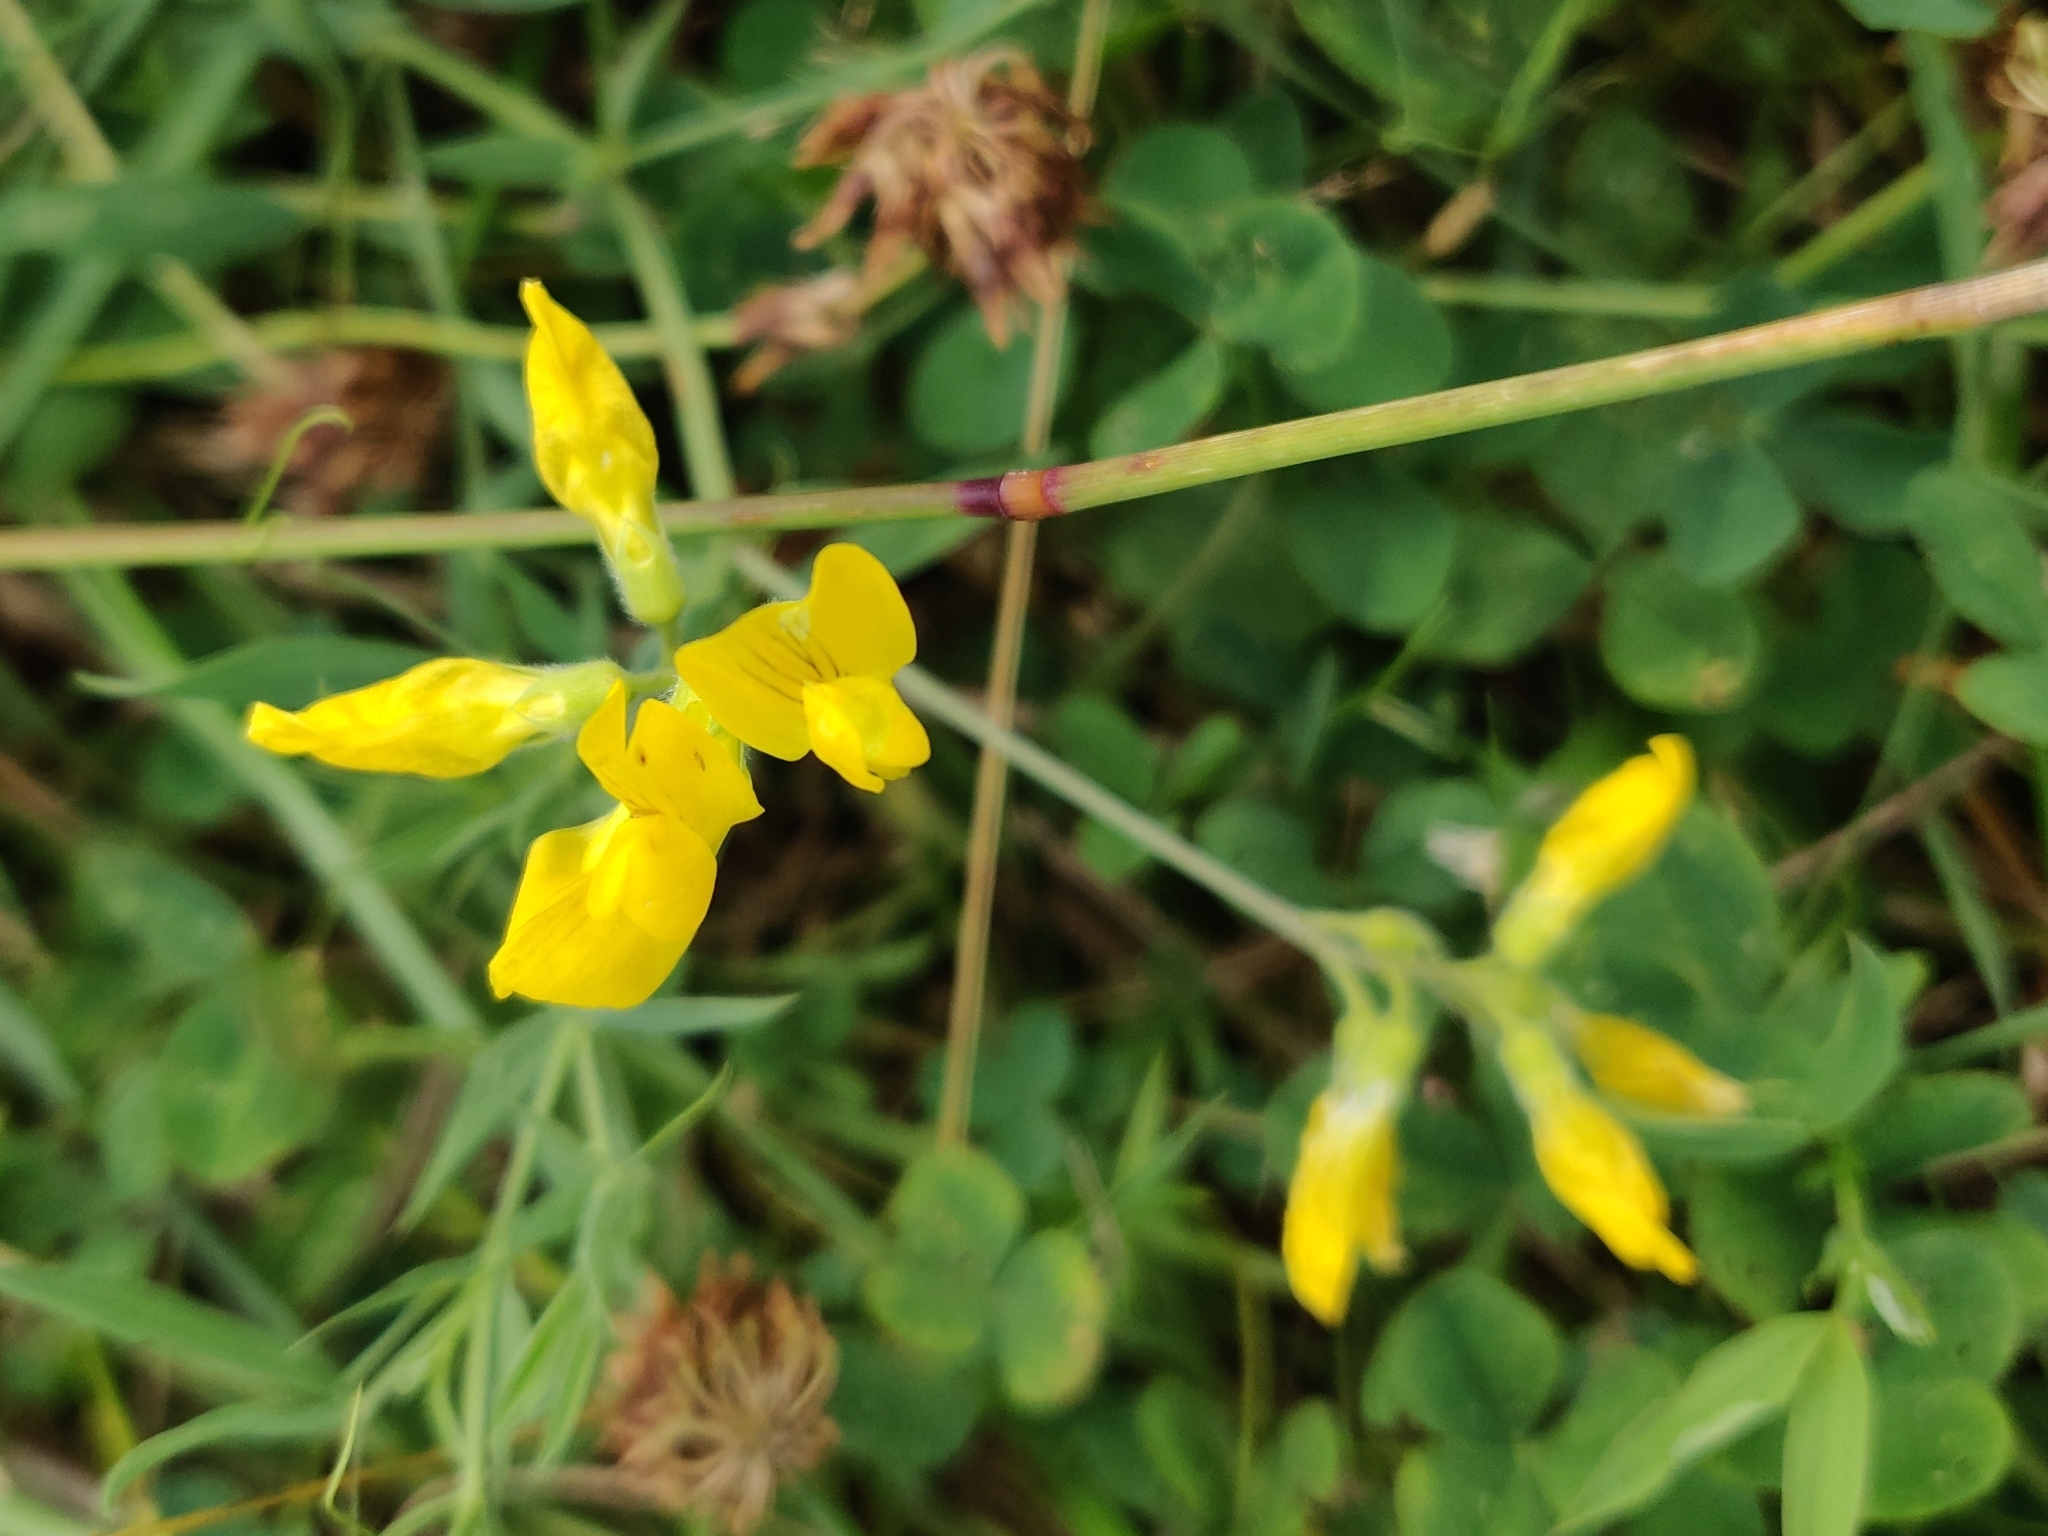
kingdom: Plantae
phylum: Tracheophyta
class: Magnoliopsida
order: Fabales
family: Fabaceae
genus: Lathyrus
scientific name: Lathyrus pratensis
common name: Meadow vetchling
